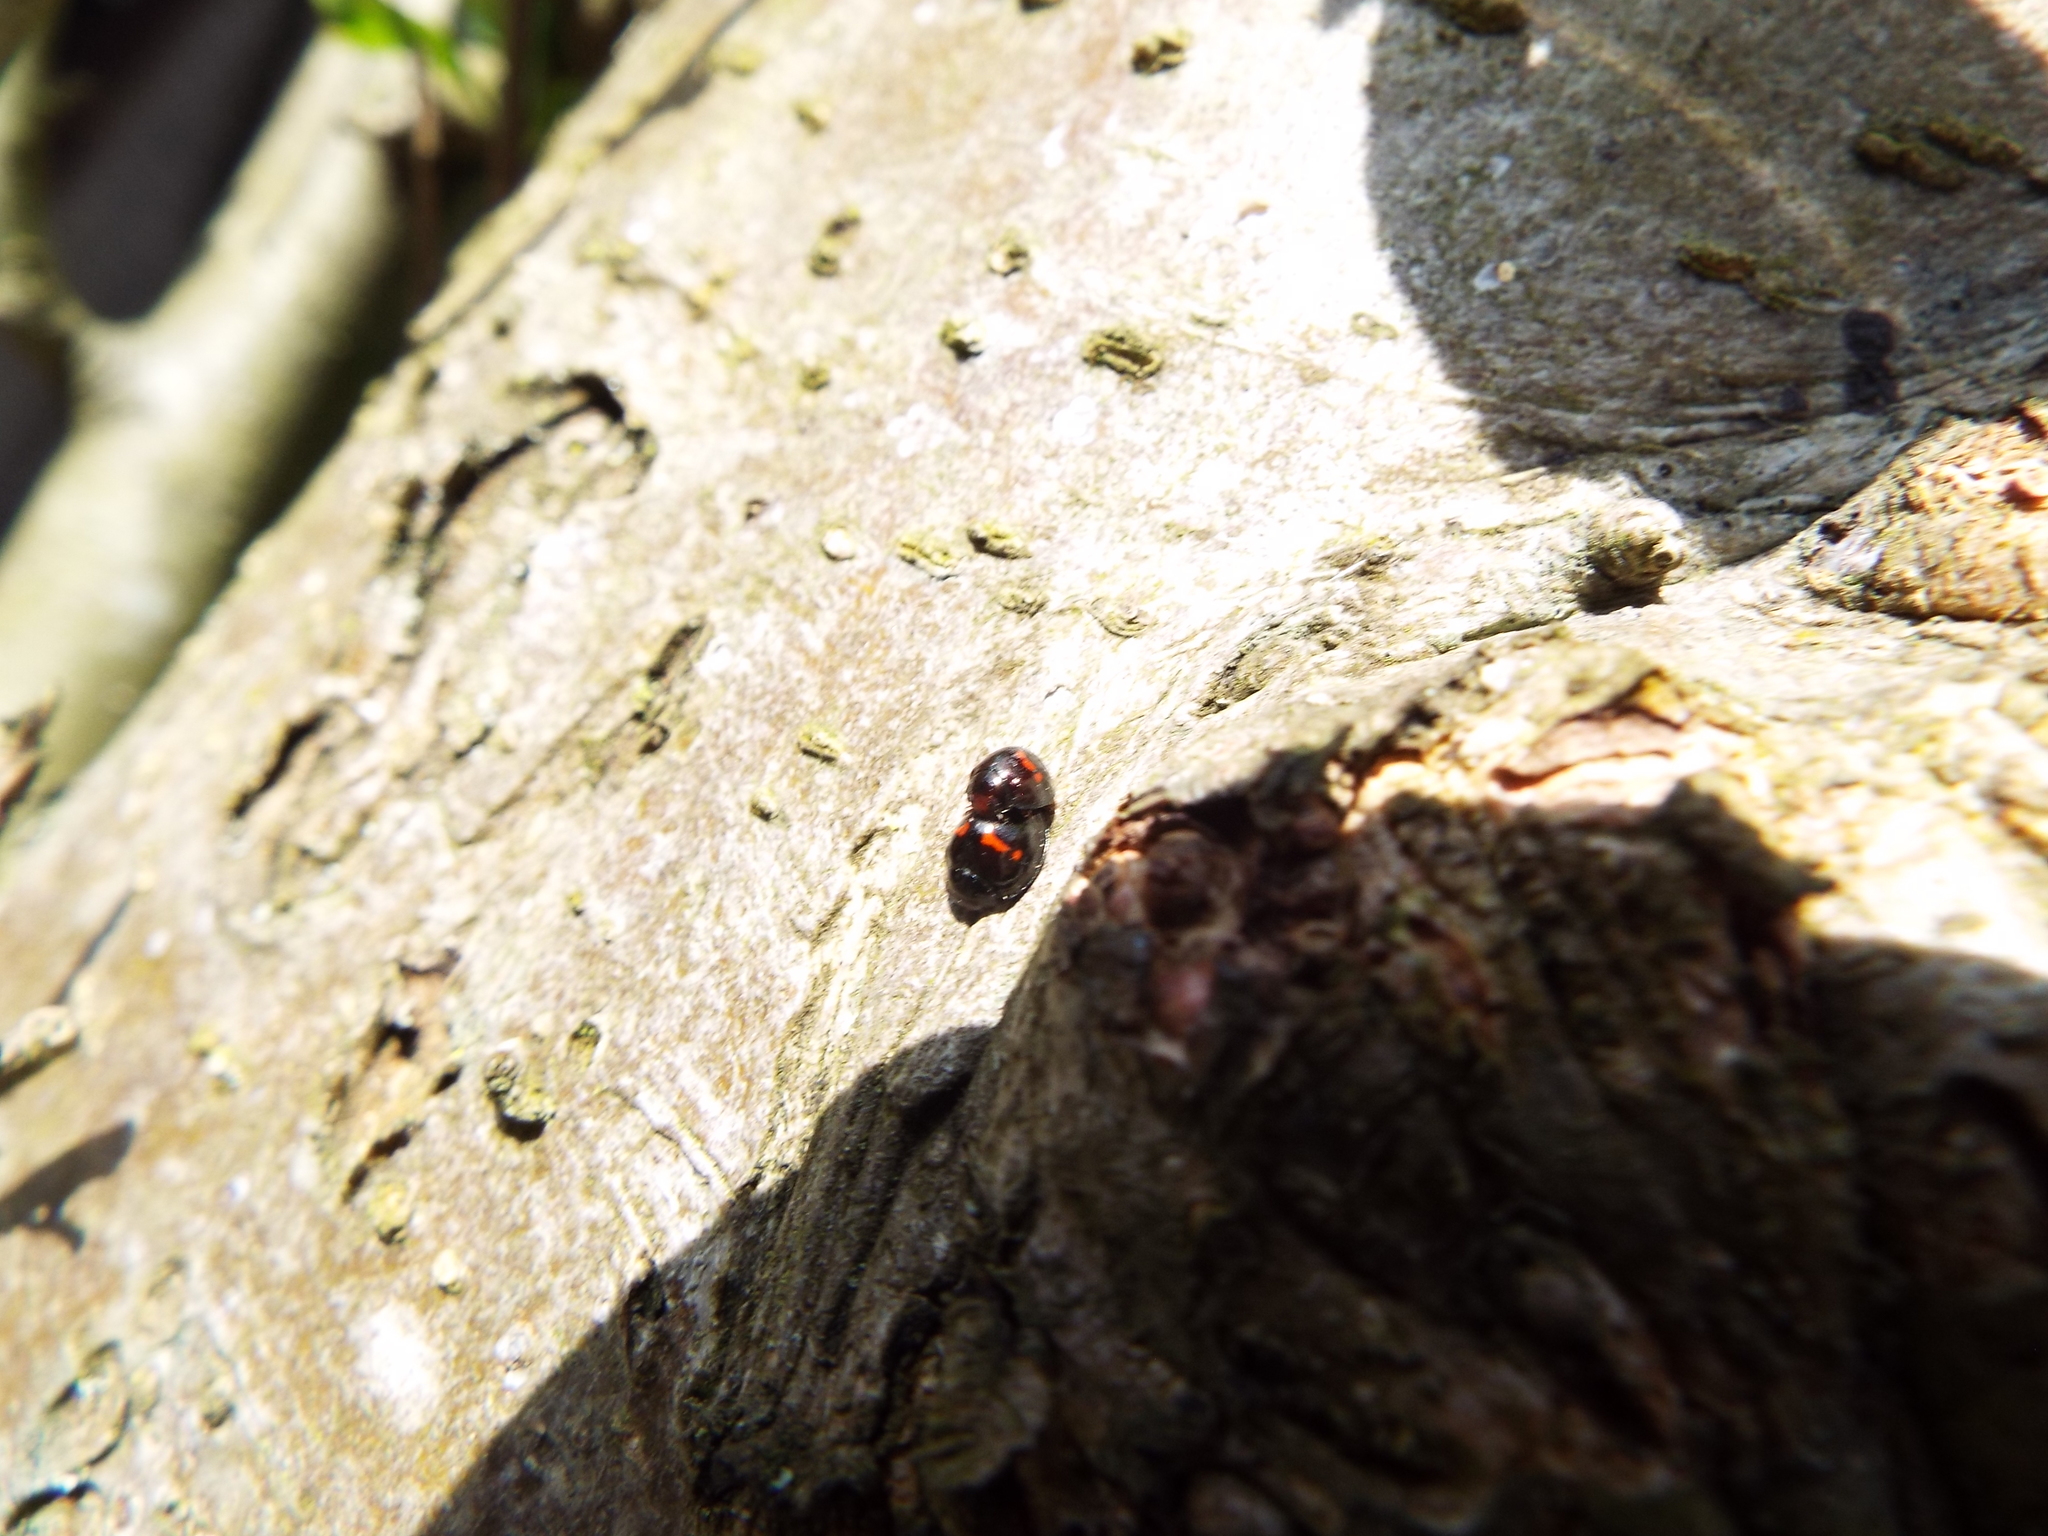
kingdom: Animalia
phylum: Arthropoda
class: Insecta
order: Coleoptera
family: Coccinellidae
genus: Chilocorus
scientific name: Chilocorus bipustulatus
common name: Heather ladybird
